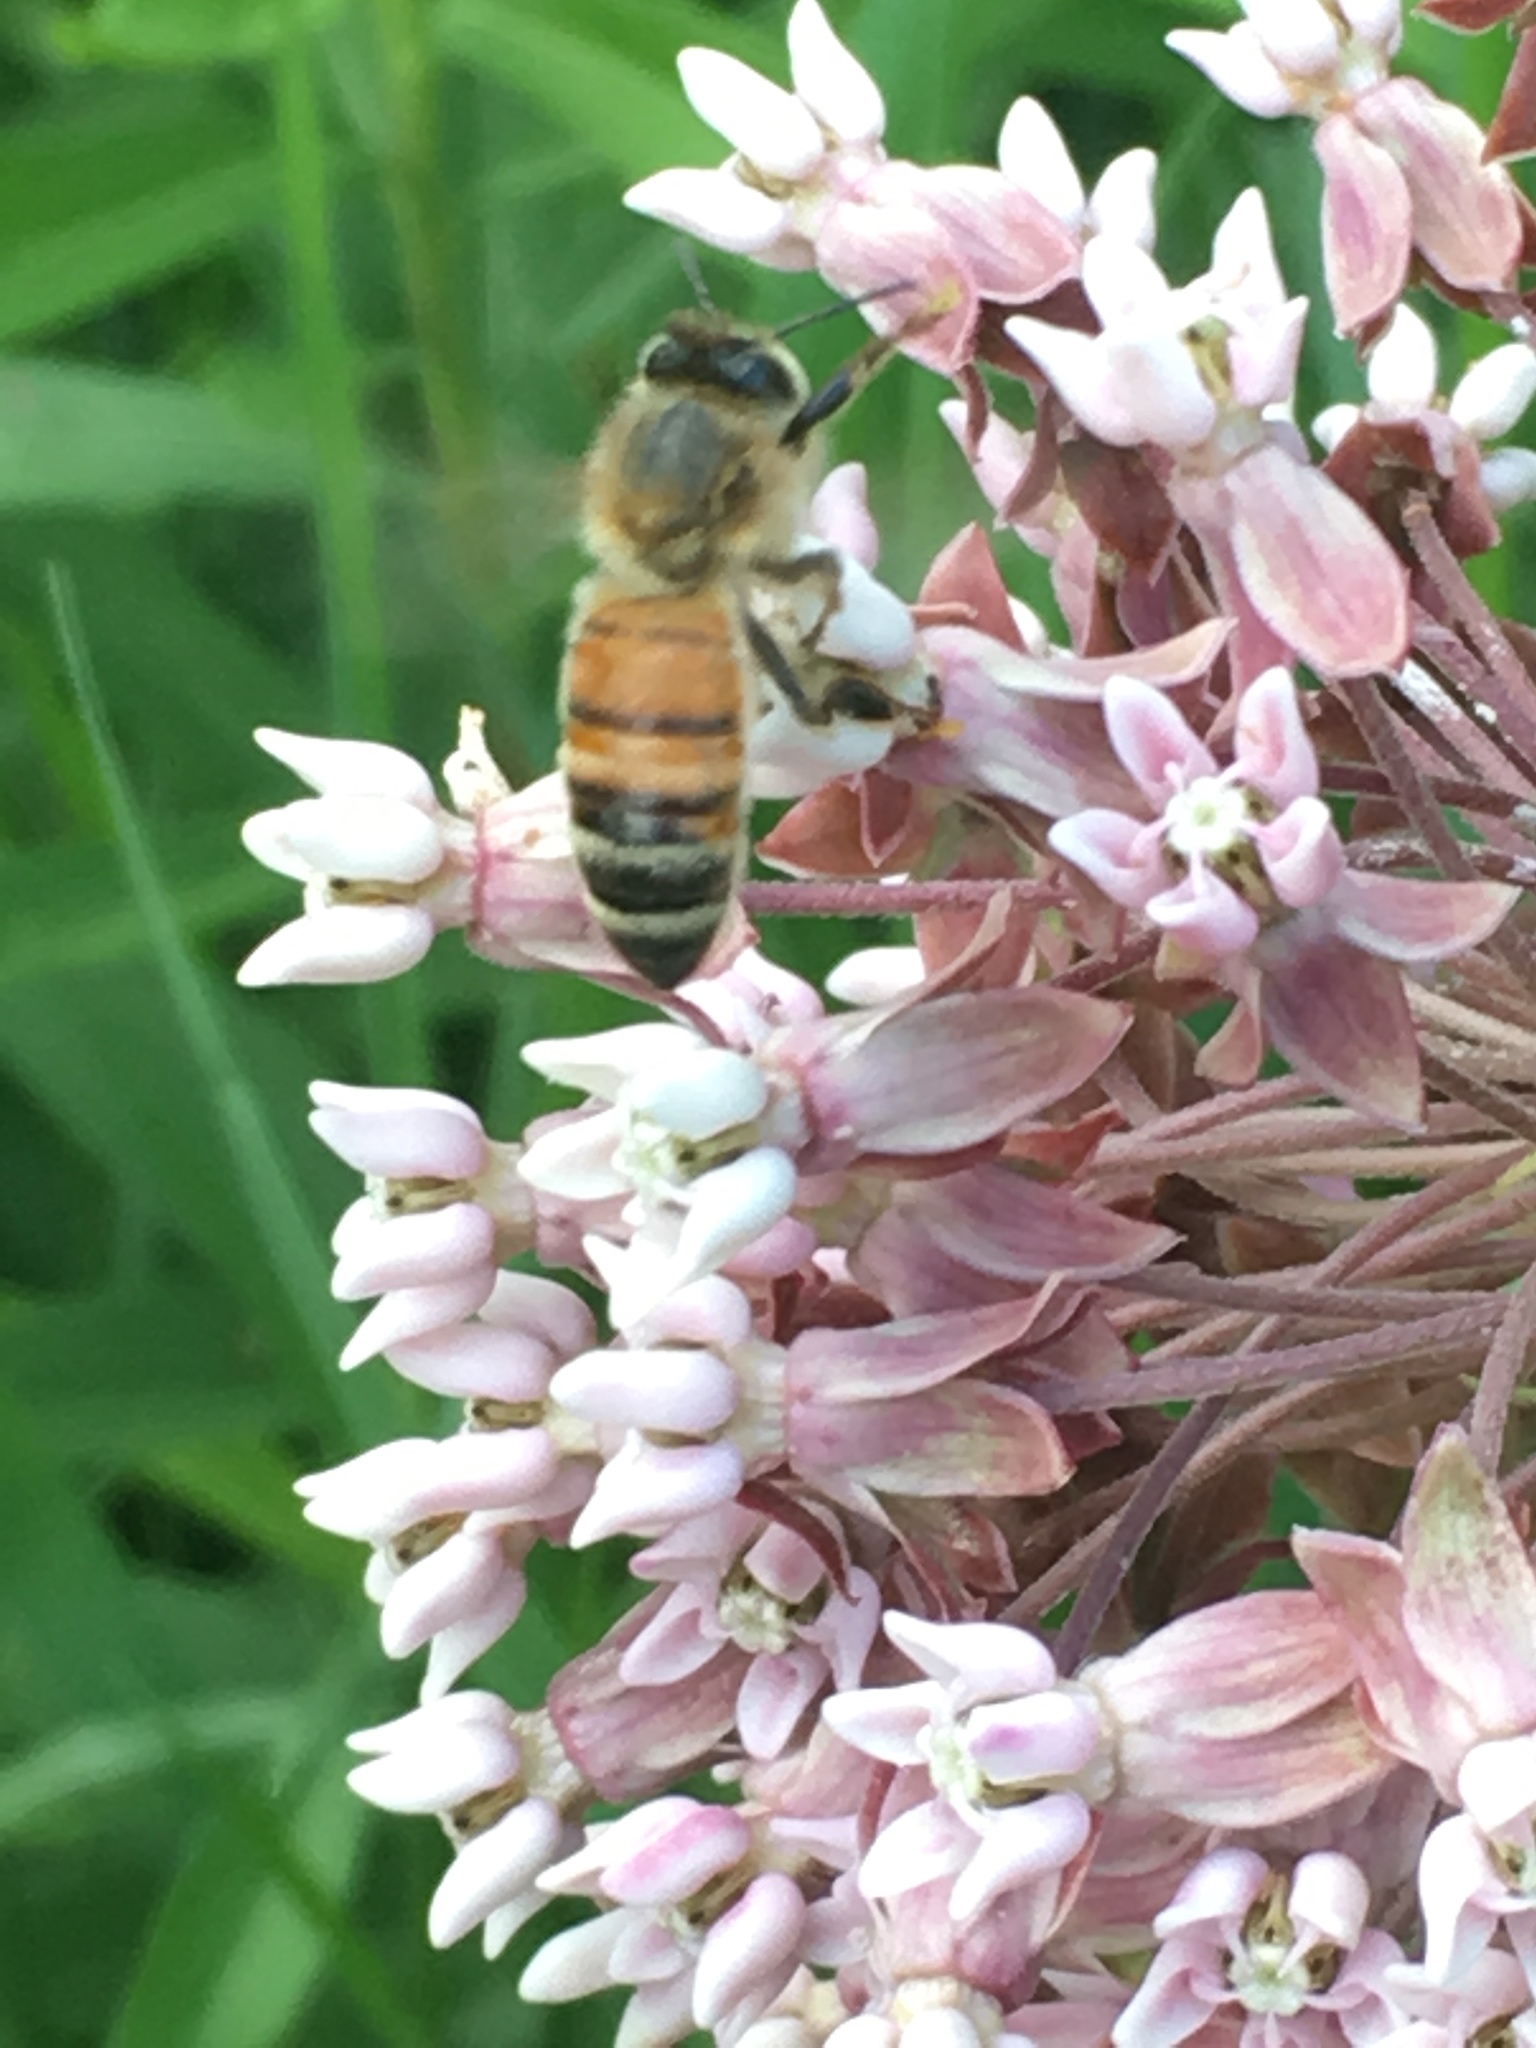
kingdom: Animalia
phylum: Arthropoda
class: Insecta
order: Hymenoptera
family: Apidae
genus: Apis
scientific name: Apis mellifera
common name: Honey bee
